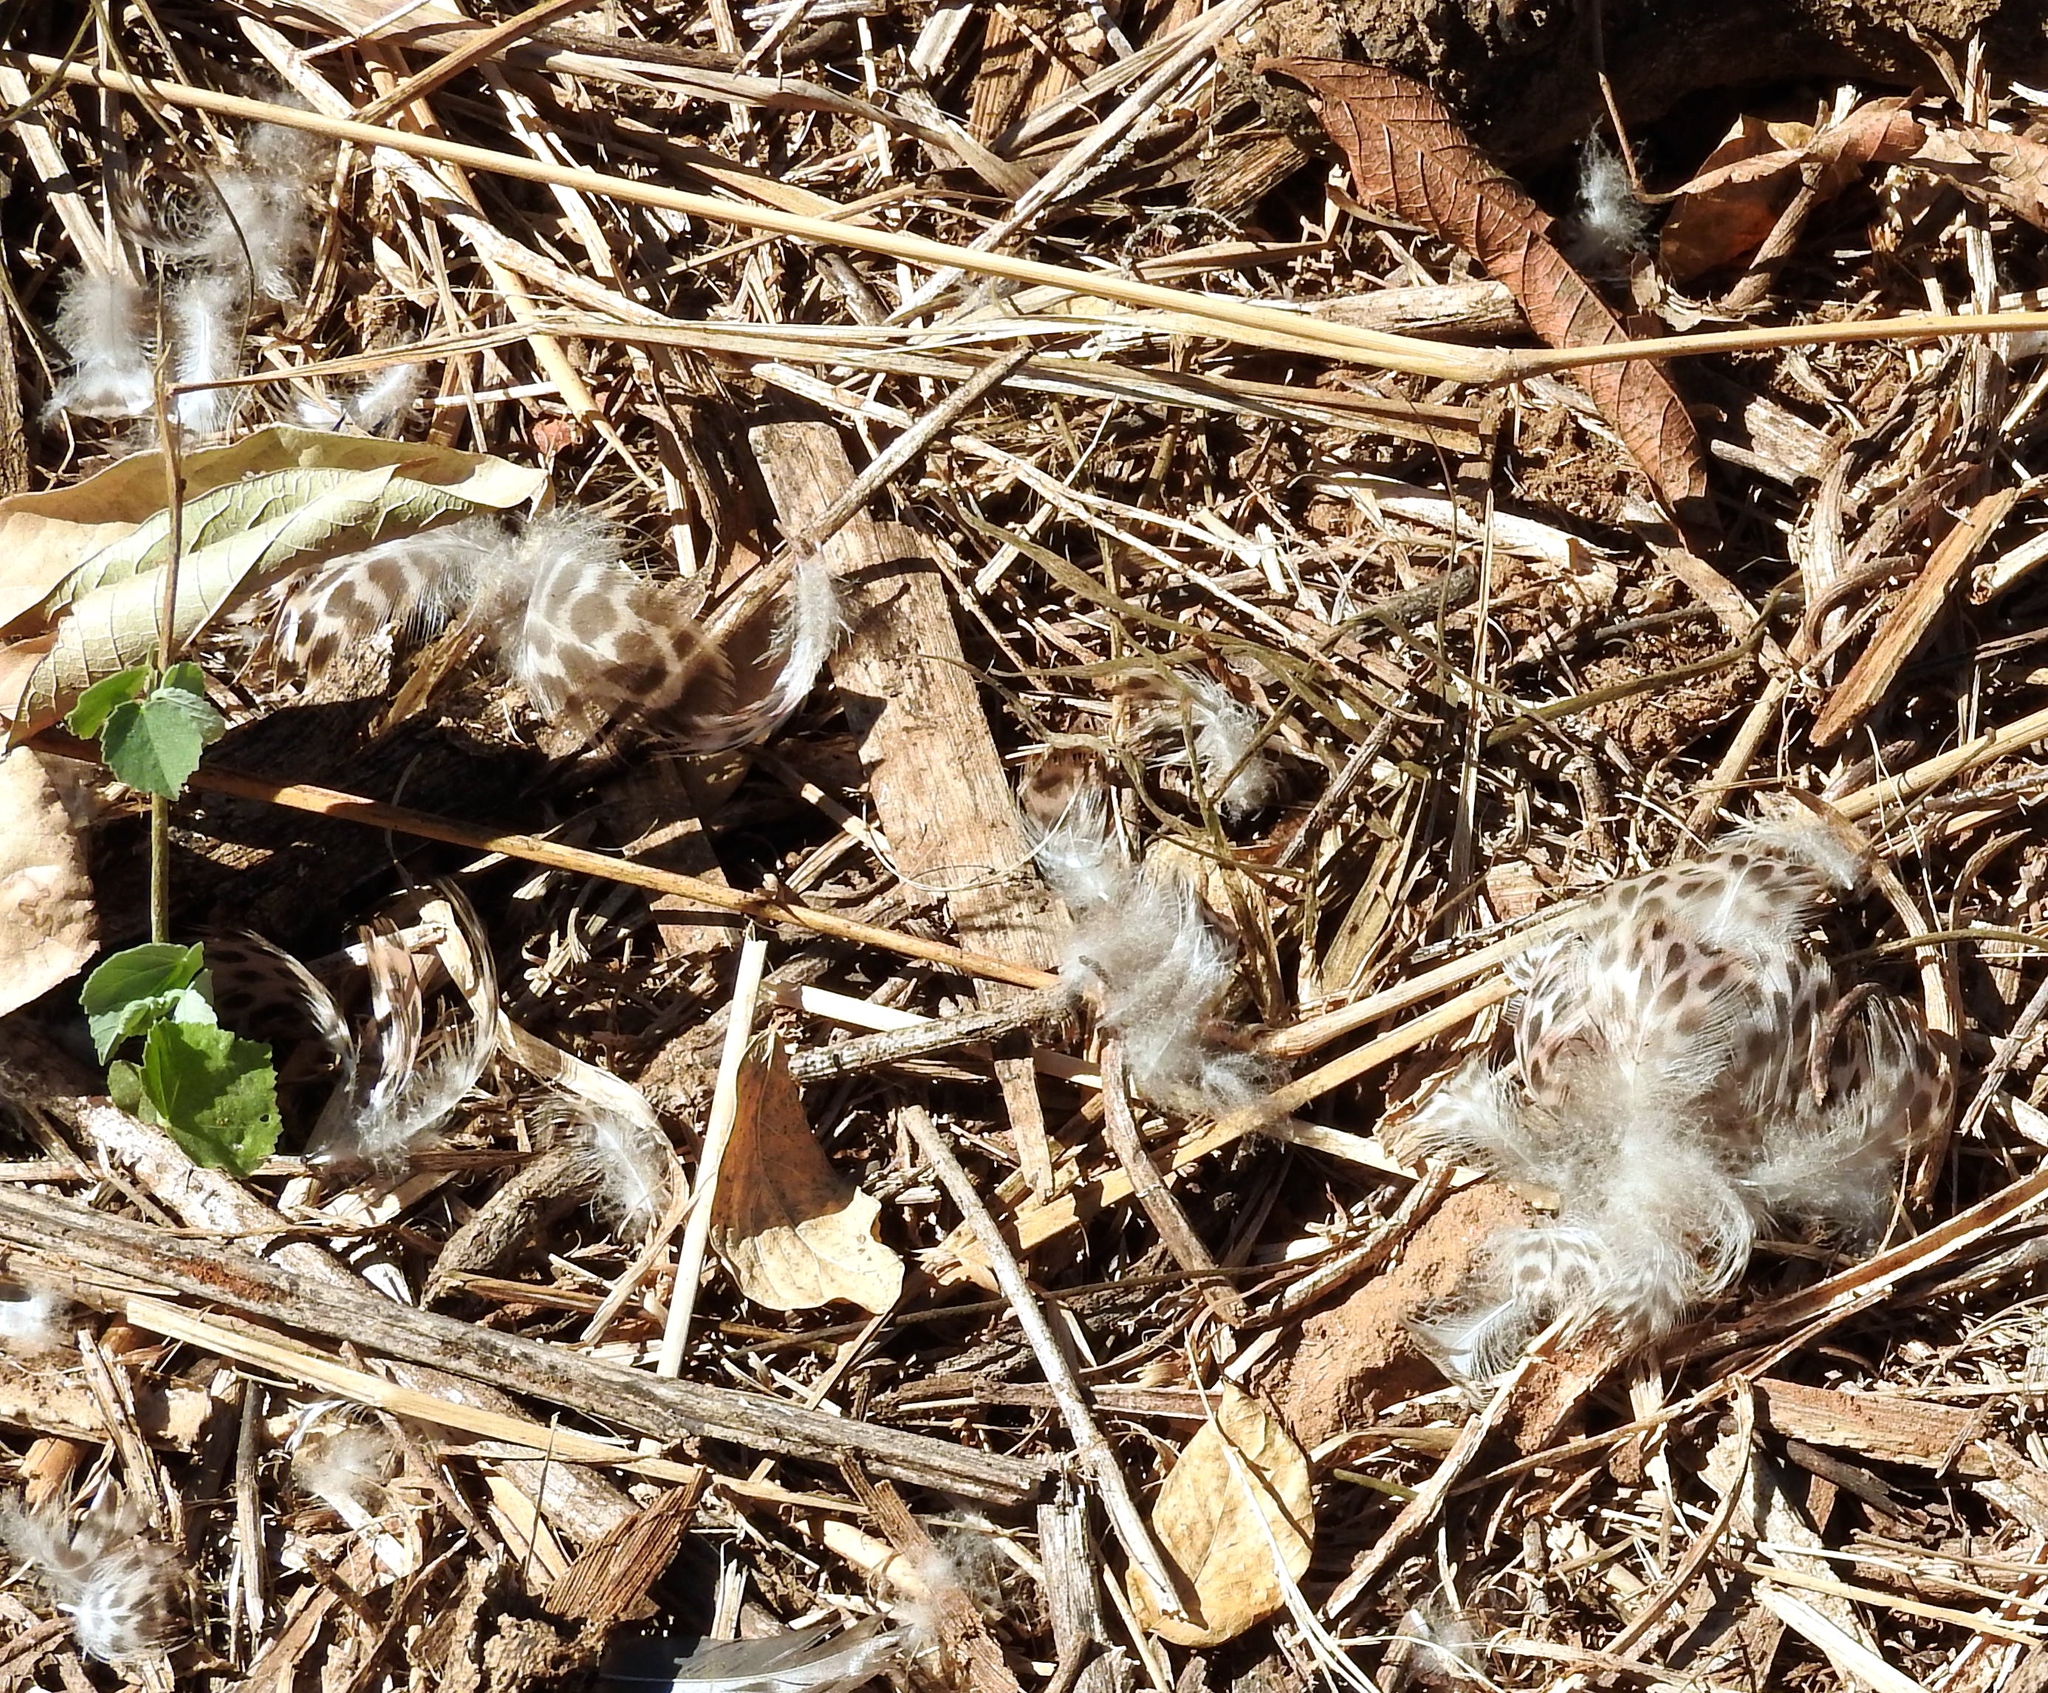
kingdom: Animalia
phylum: Chordata
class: Aves
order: Anseriformes
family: Anatidae
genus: Spatula
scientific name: Spatula discors
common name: Blue-winged teal
